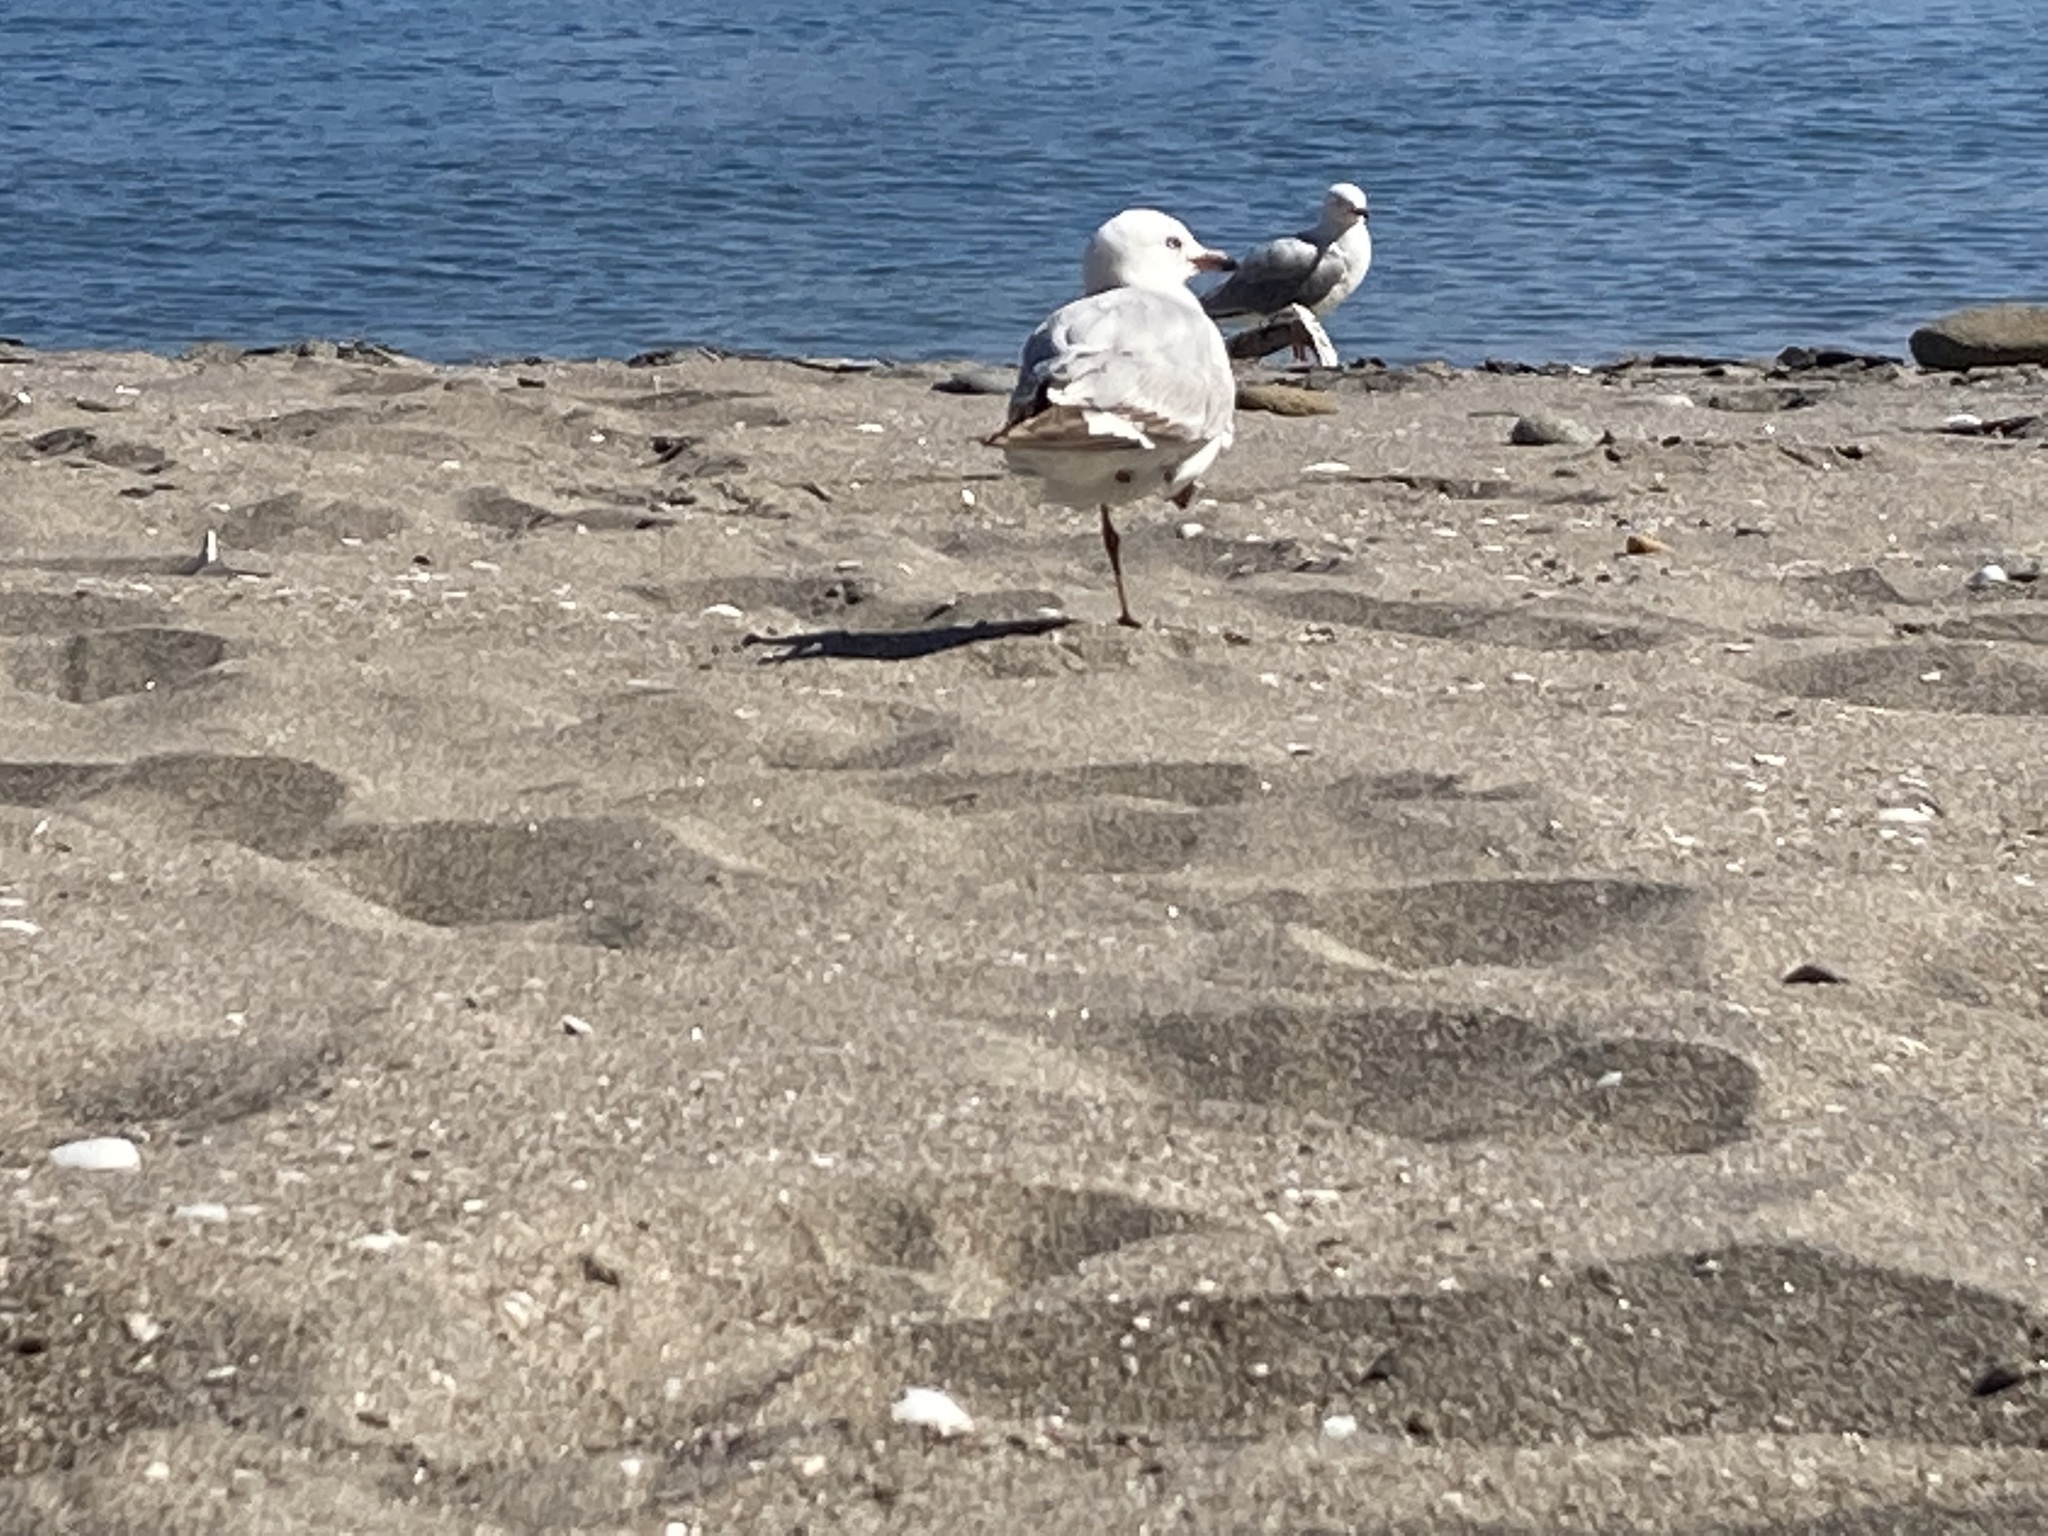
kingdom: Animalia
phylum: Chordata
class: Aves
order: Charadriiformes
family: Laridae
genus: Chroicocephalus
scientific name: Chroicocephalus novaehollandiae
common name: Silver gull
